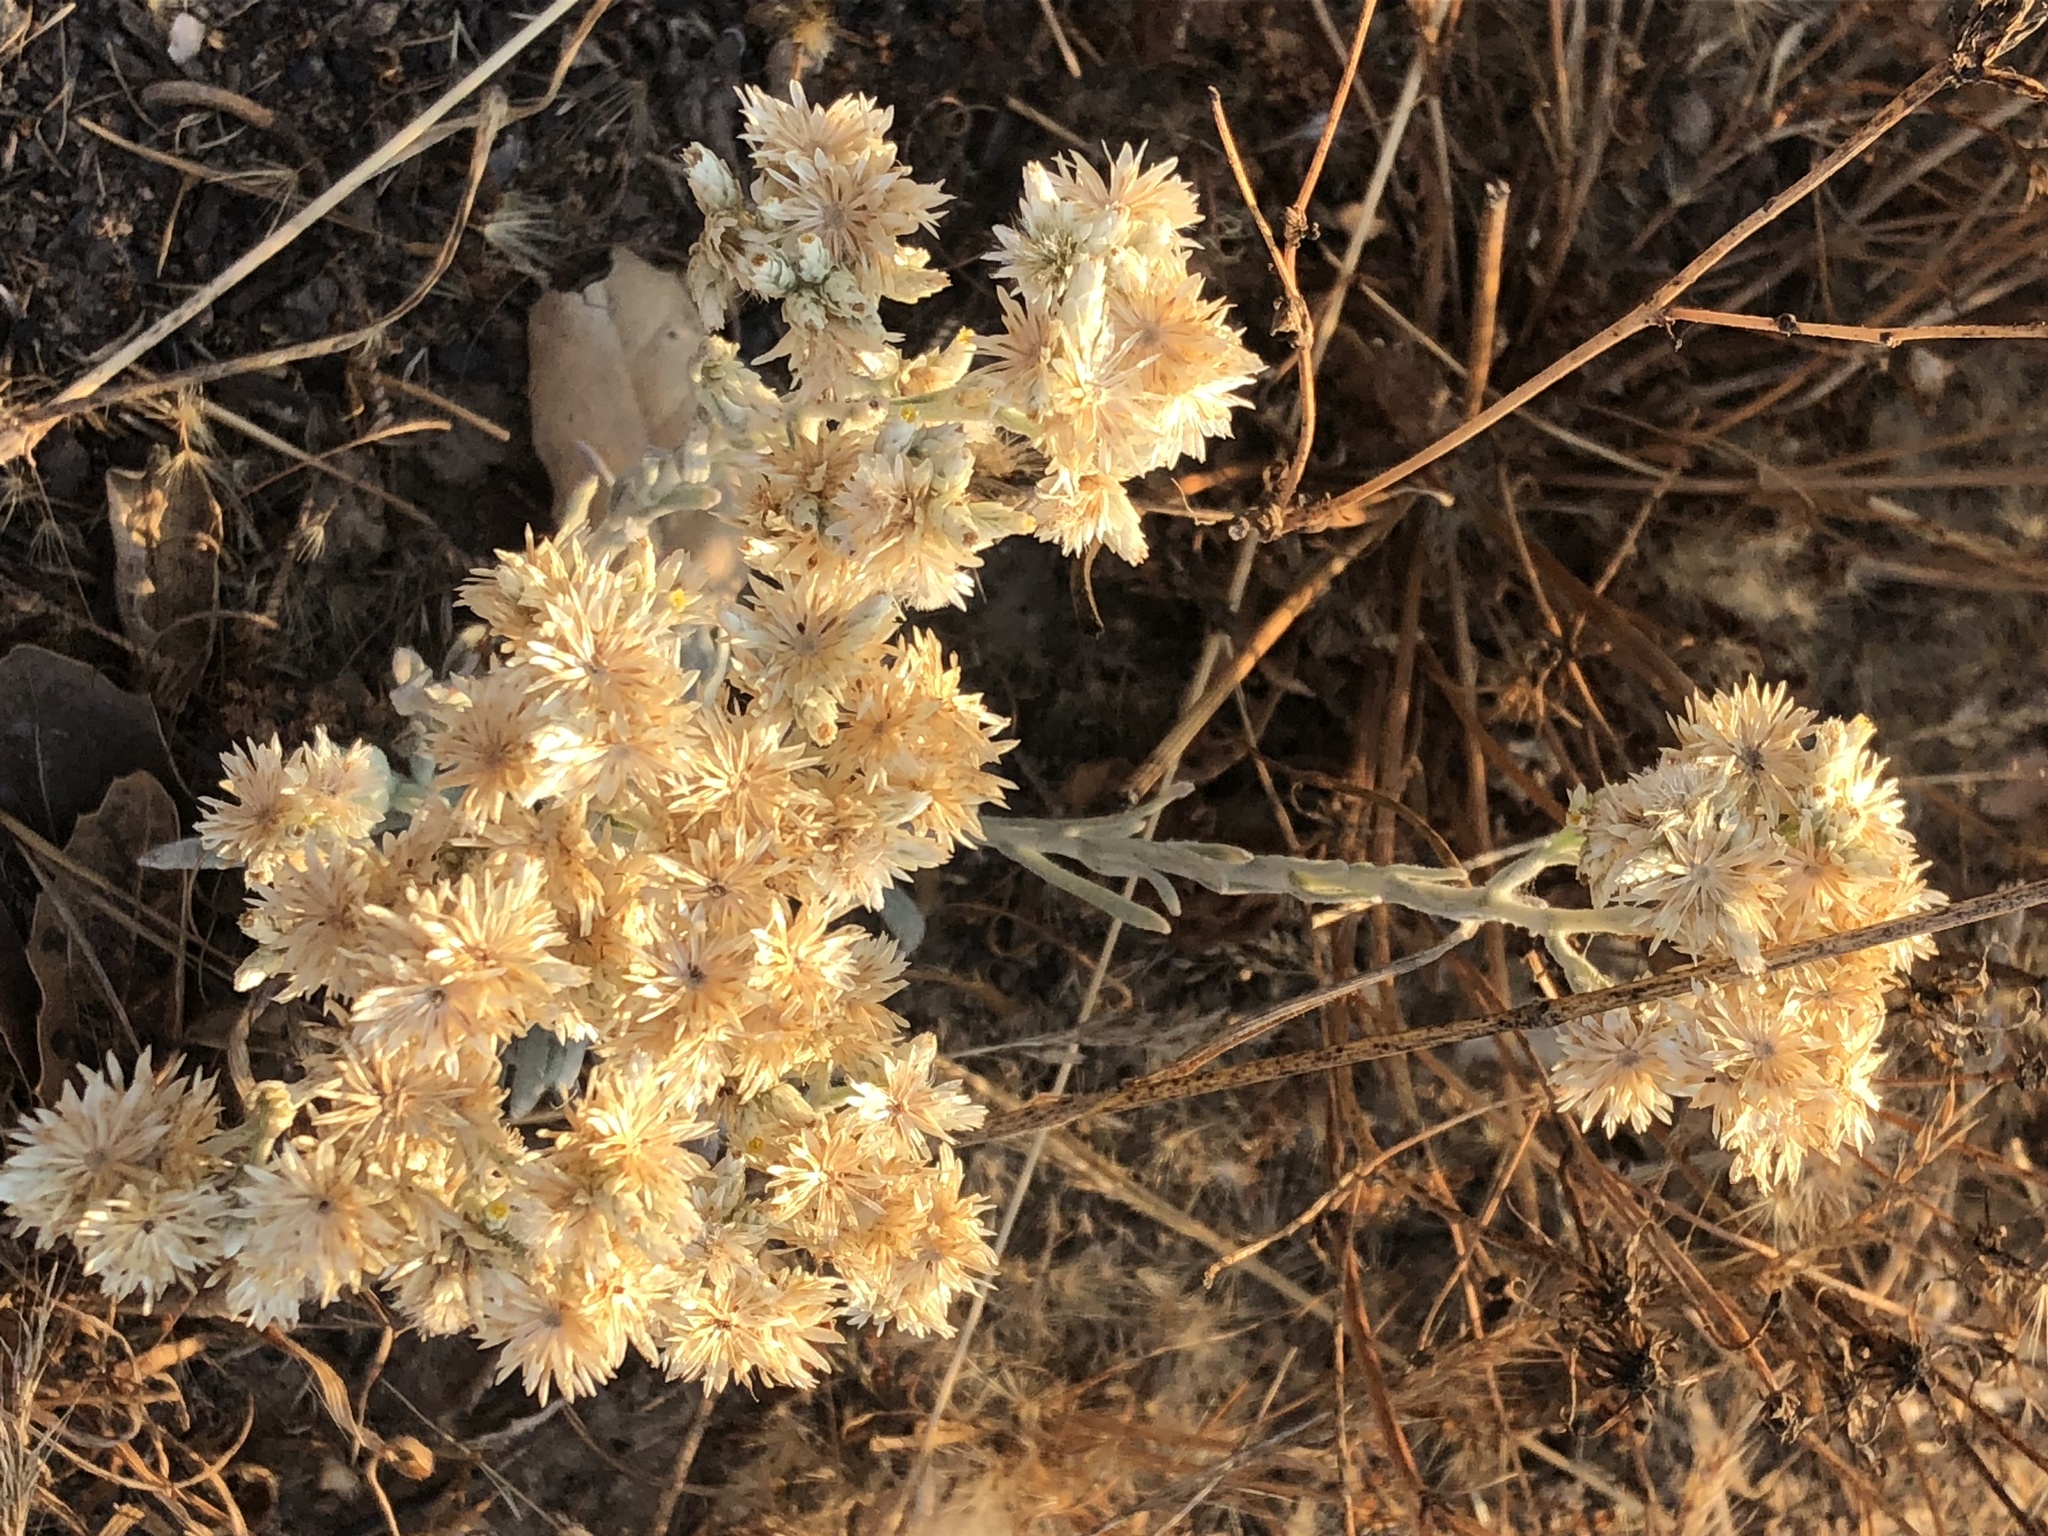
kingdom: Plantae
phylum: Tracheophyta
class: Magnoliopsida
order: Asterales
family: Asteraceae
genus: Pseudognaphalium
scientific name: Pseudognaphalium beneolens
